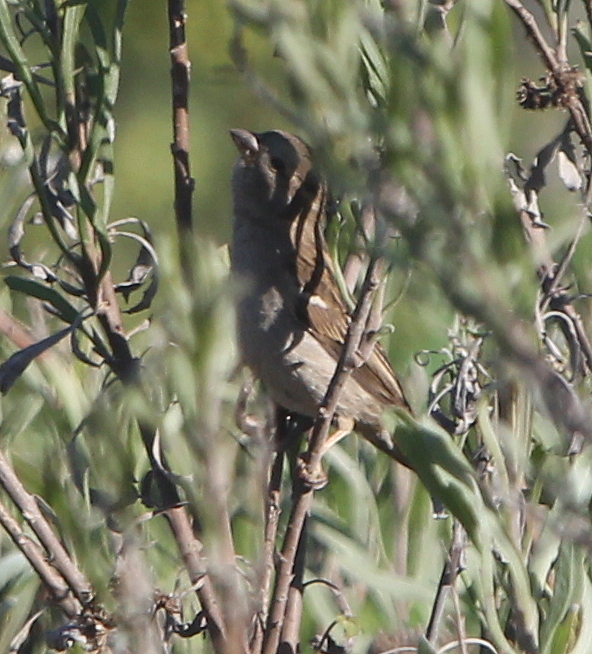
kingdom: Animalia
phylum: Chordata
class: Aves
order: Passeriformes
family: Passeridae
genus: Passer
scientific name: Passer domesticus
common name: House sparrow
